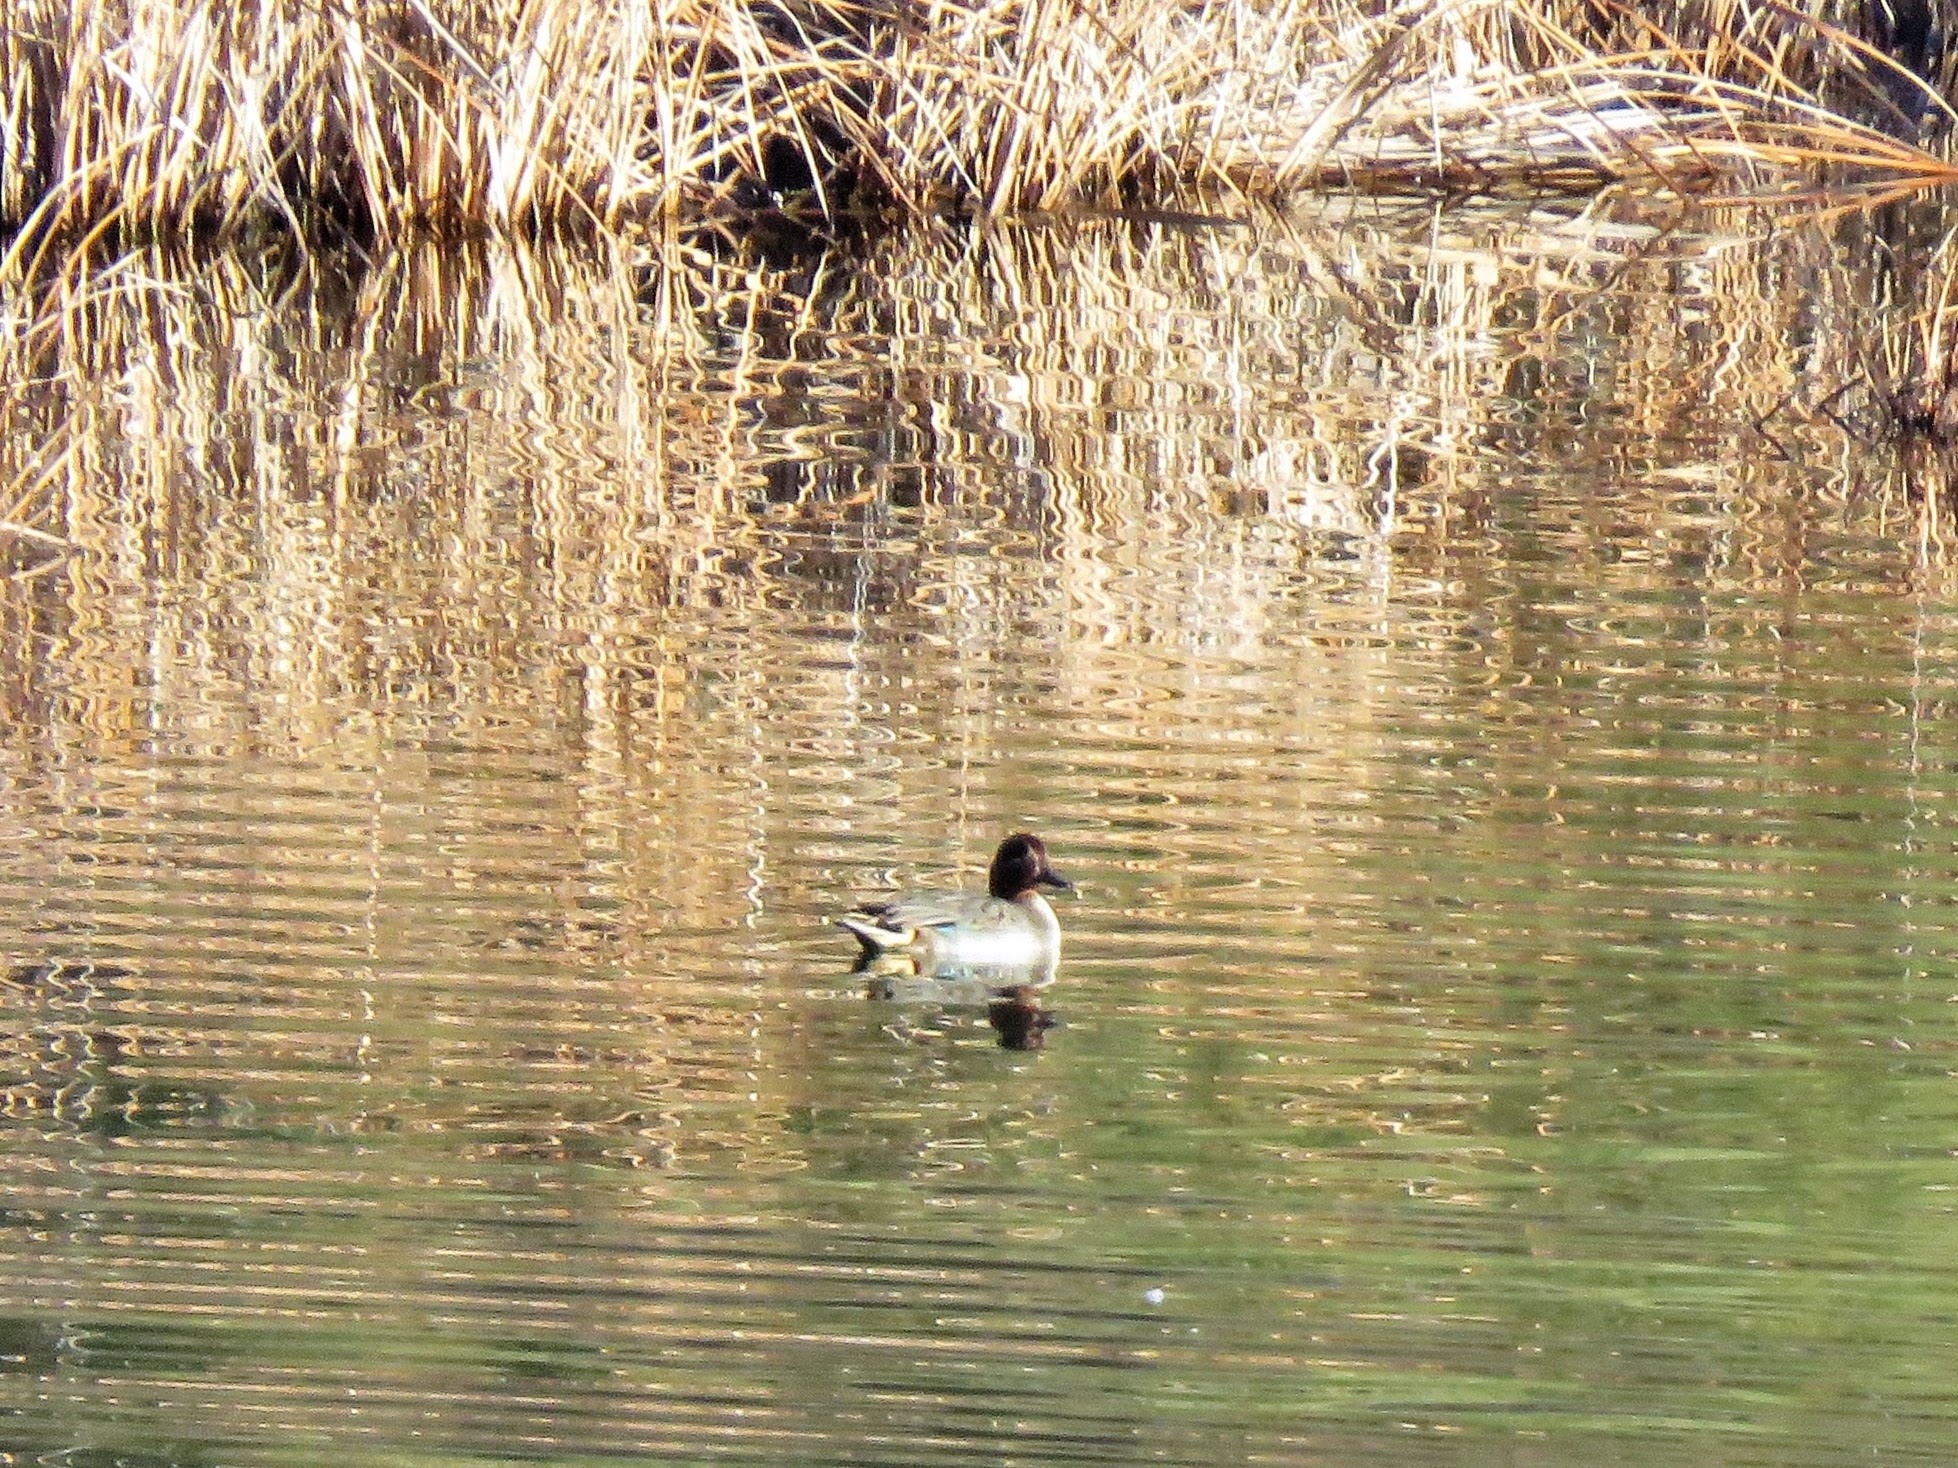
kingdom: Animalia
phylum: Chordata
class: Aves
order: Anseriformes
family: Anatidae
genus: Anas
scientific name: Anas crecca
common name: Eurasian teal
